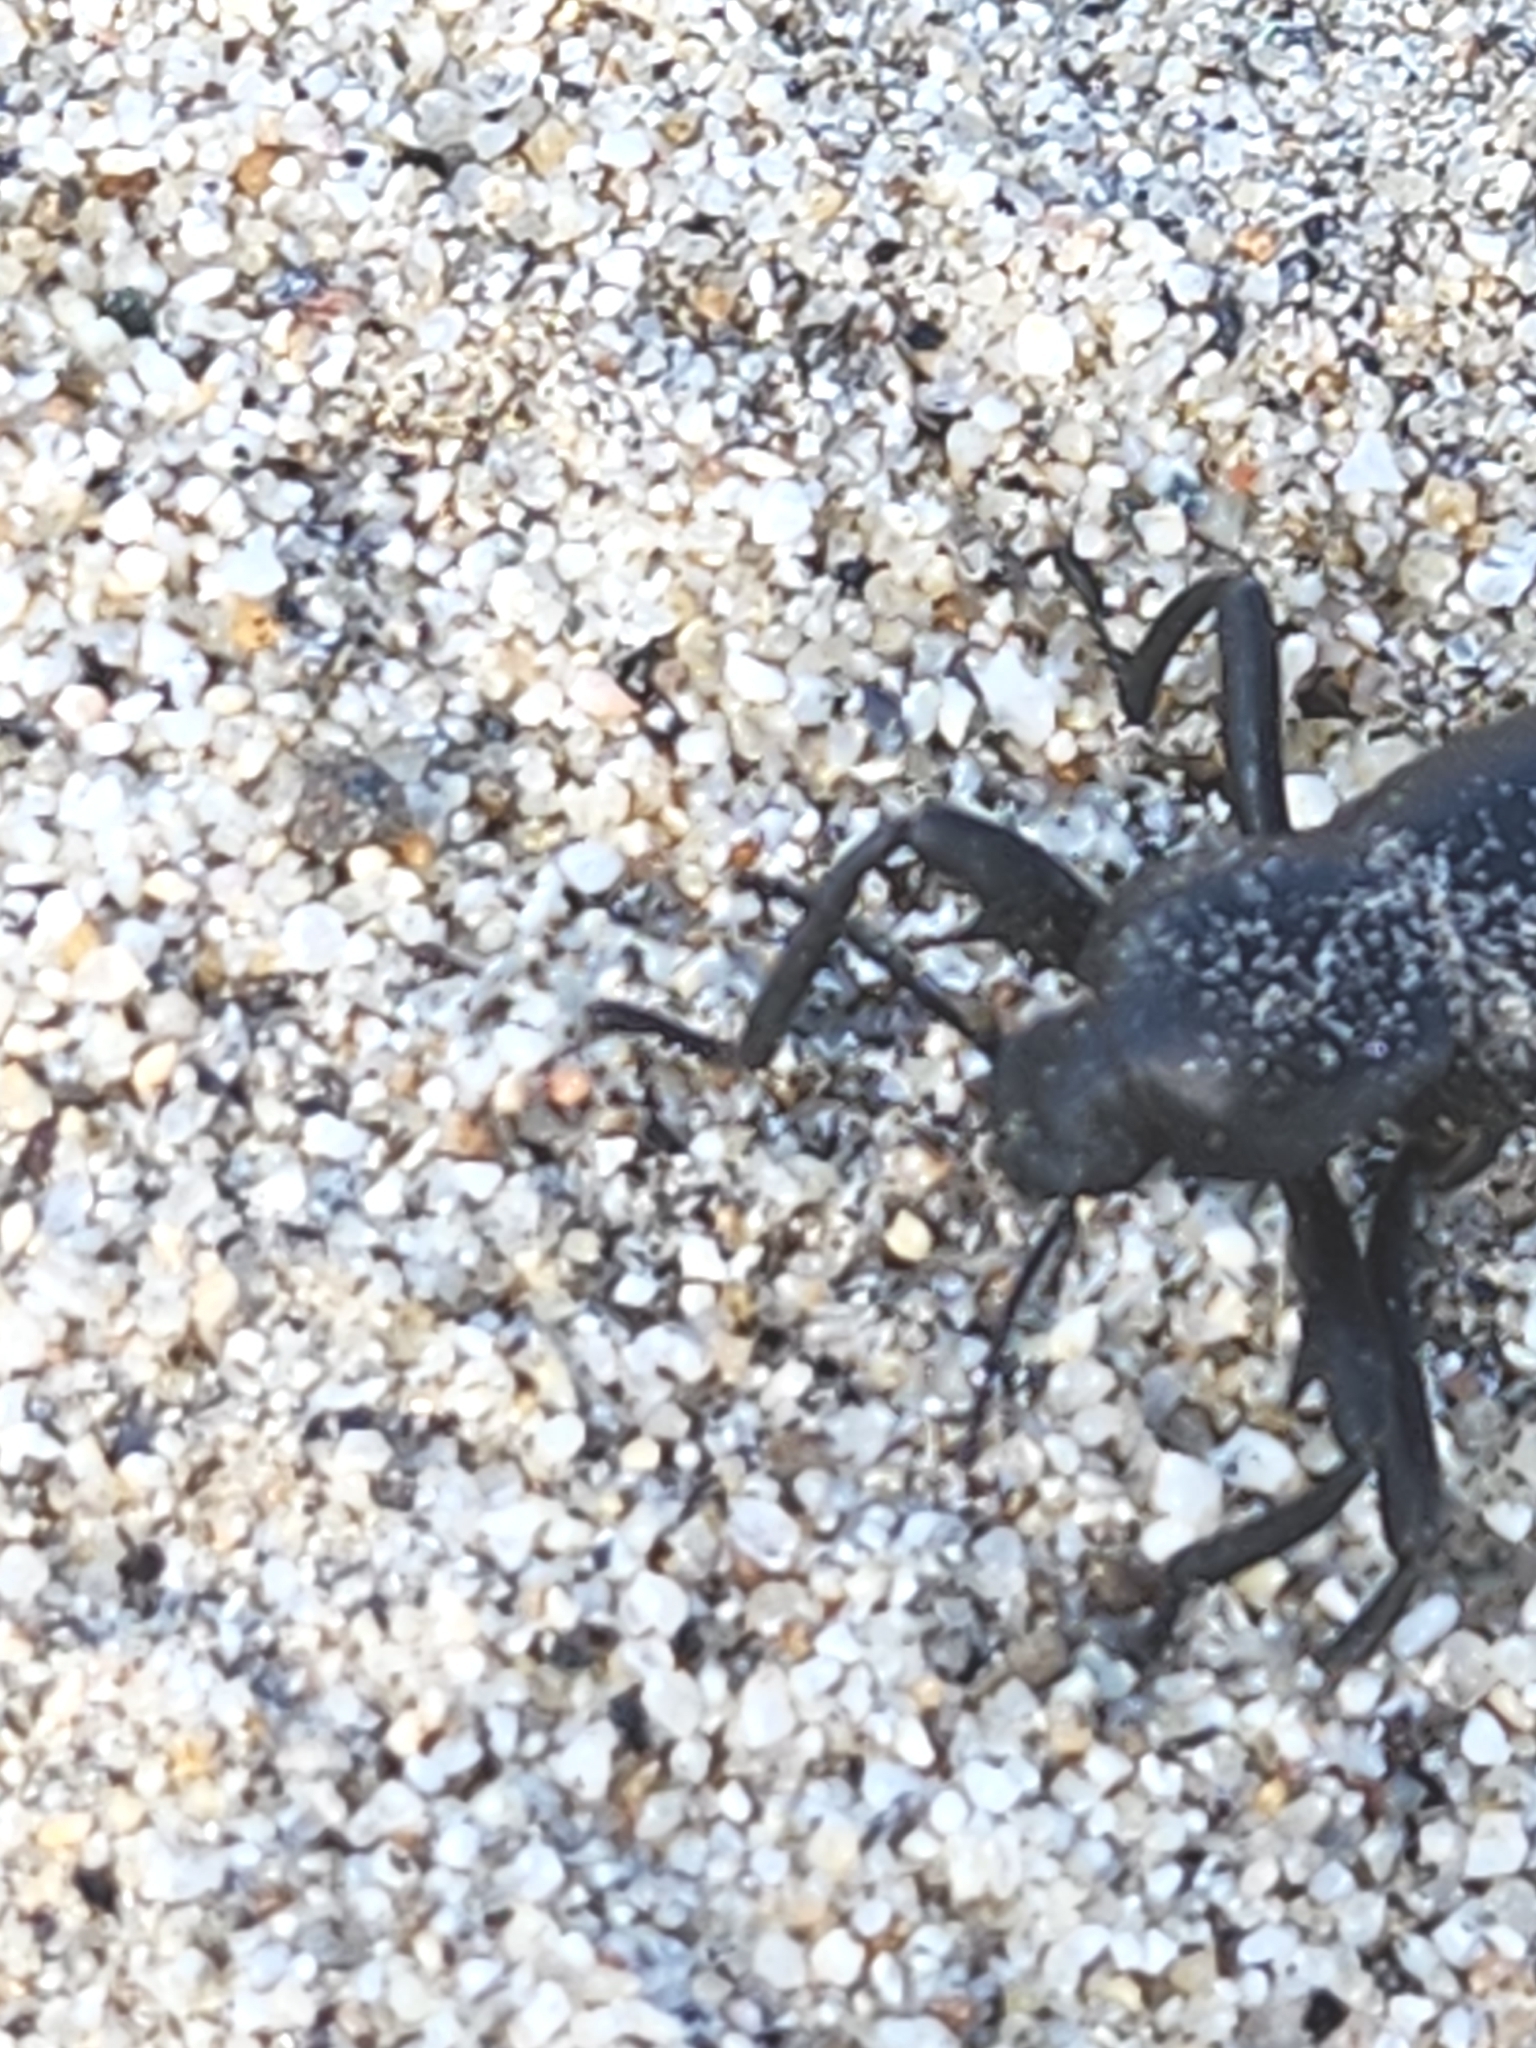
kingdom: Animalia
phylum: Arthropoda
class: Insecta
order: Coleoptera
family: Tenebrionidae
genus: Eleodes
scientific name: Eleodes armata
